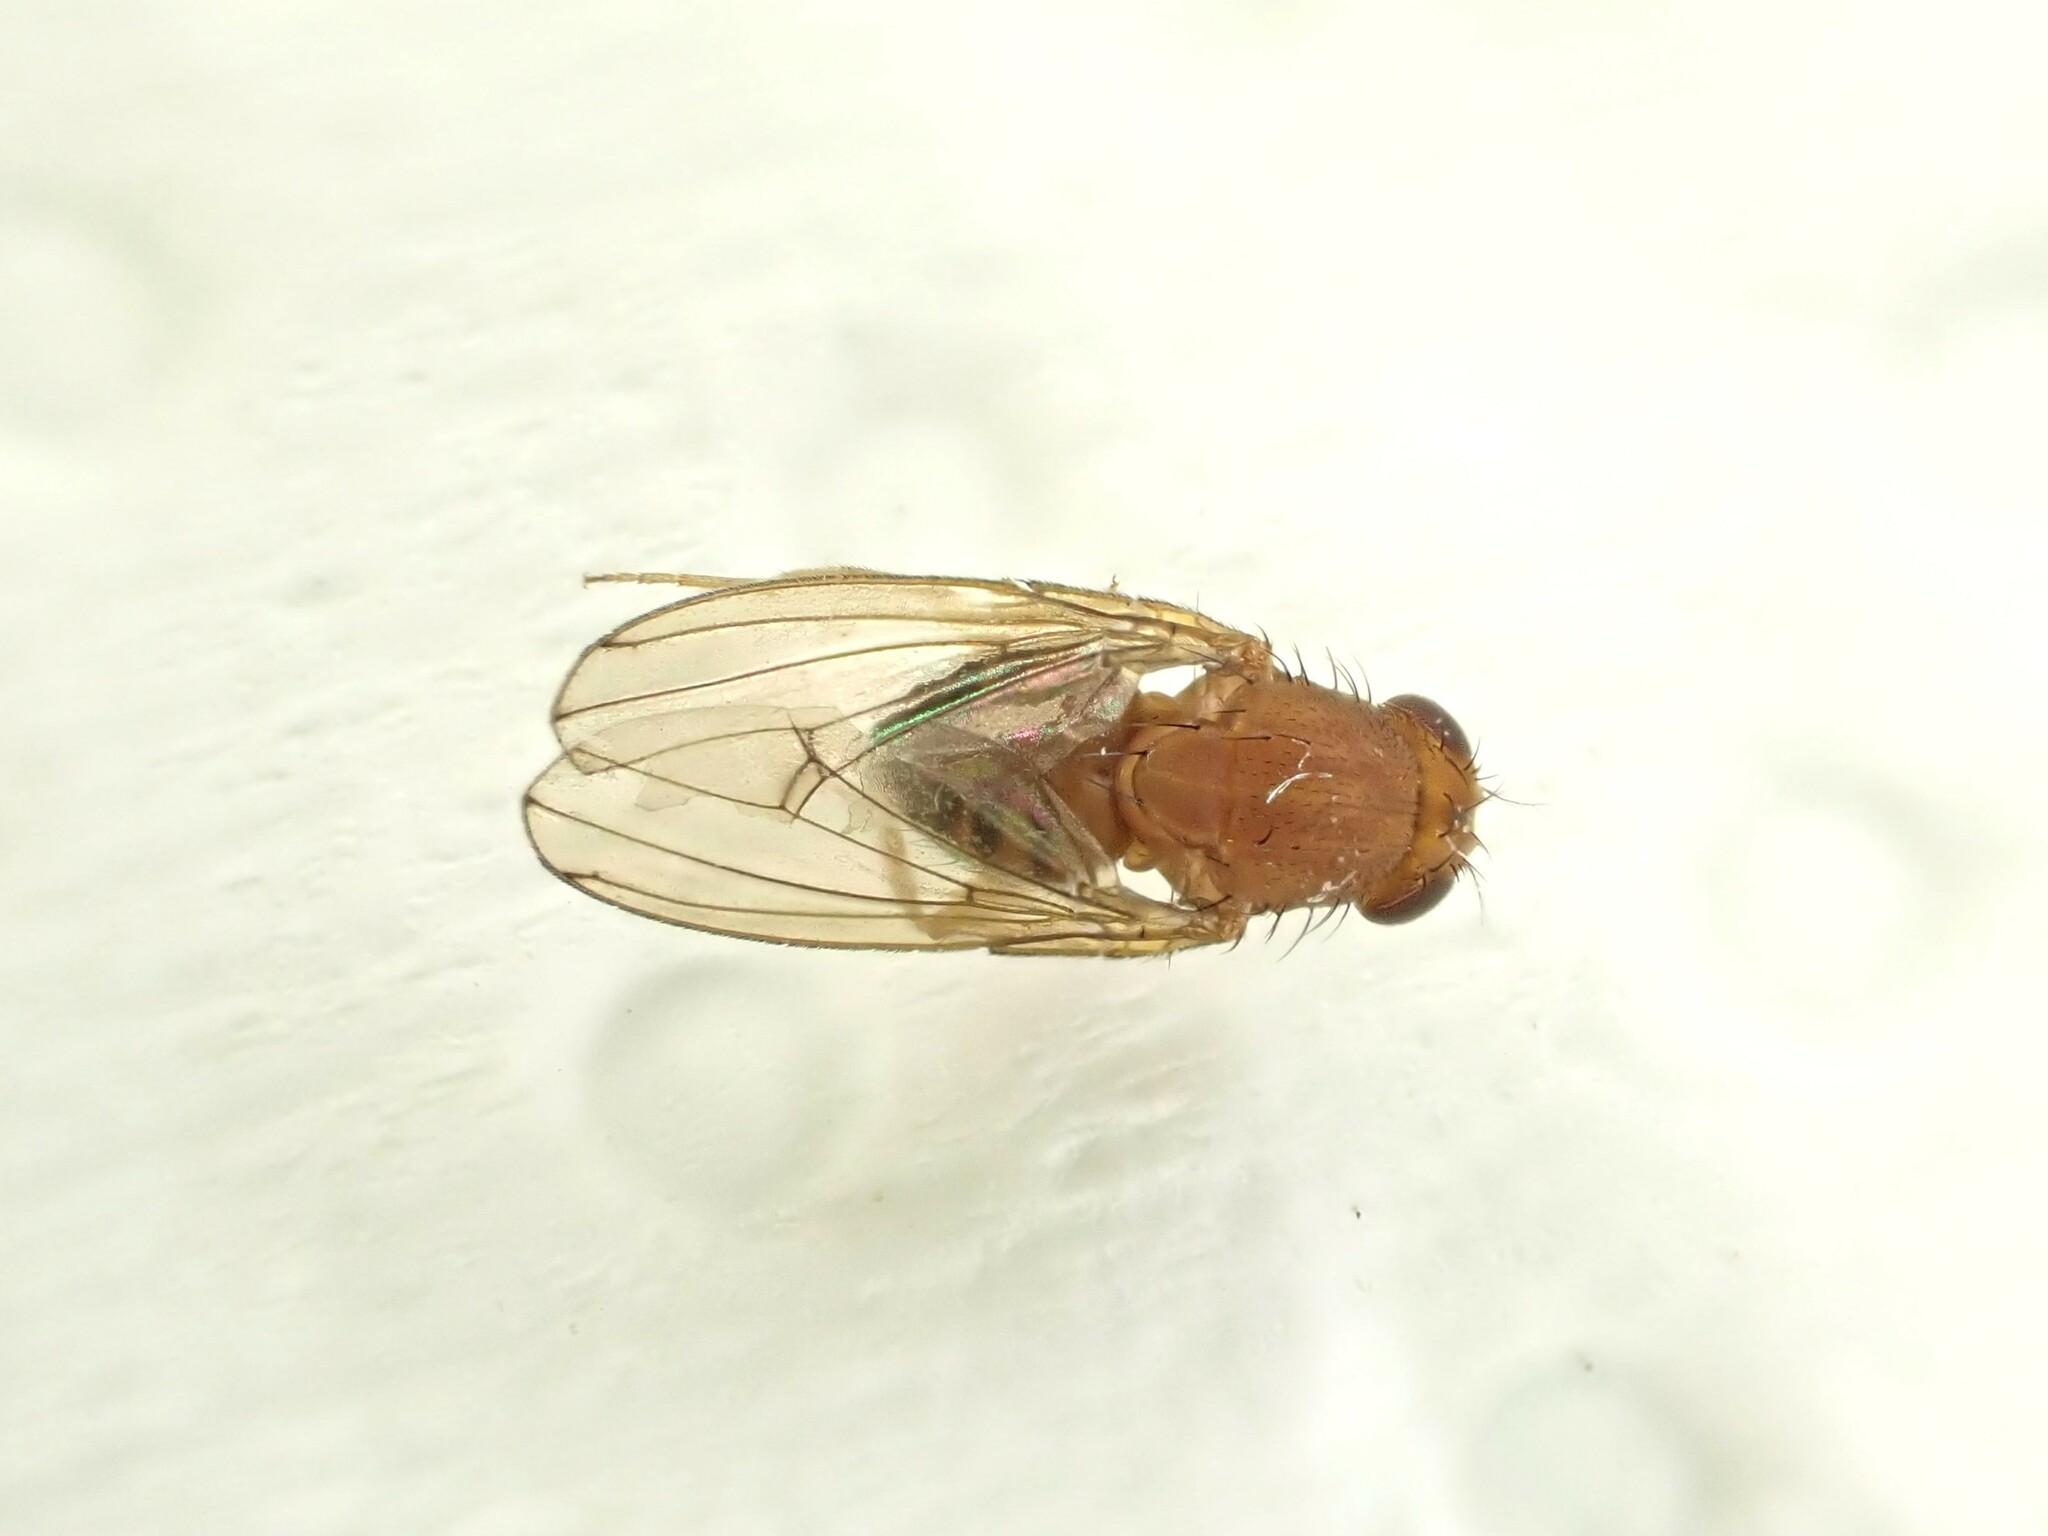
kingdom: Animalia
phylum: Arthropoda
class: Insecta
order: Diptera
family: Drosophilidae
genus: Drosophila
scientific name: Drosophila immigrans
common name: Pomace fly
